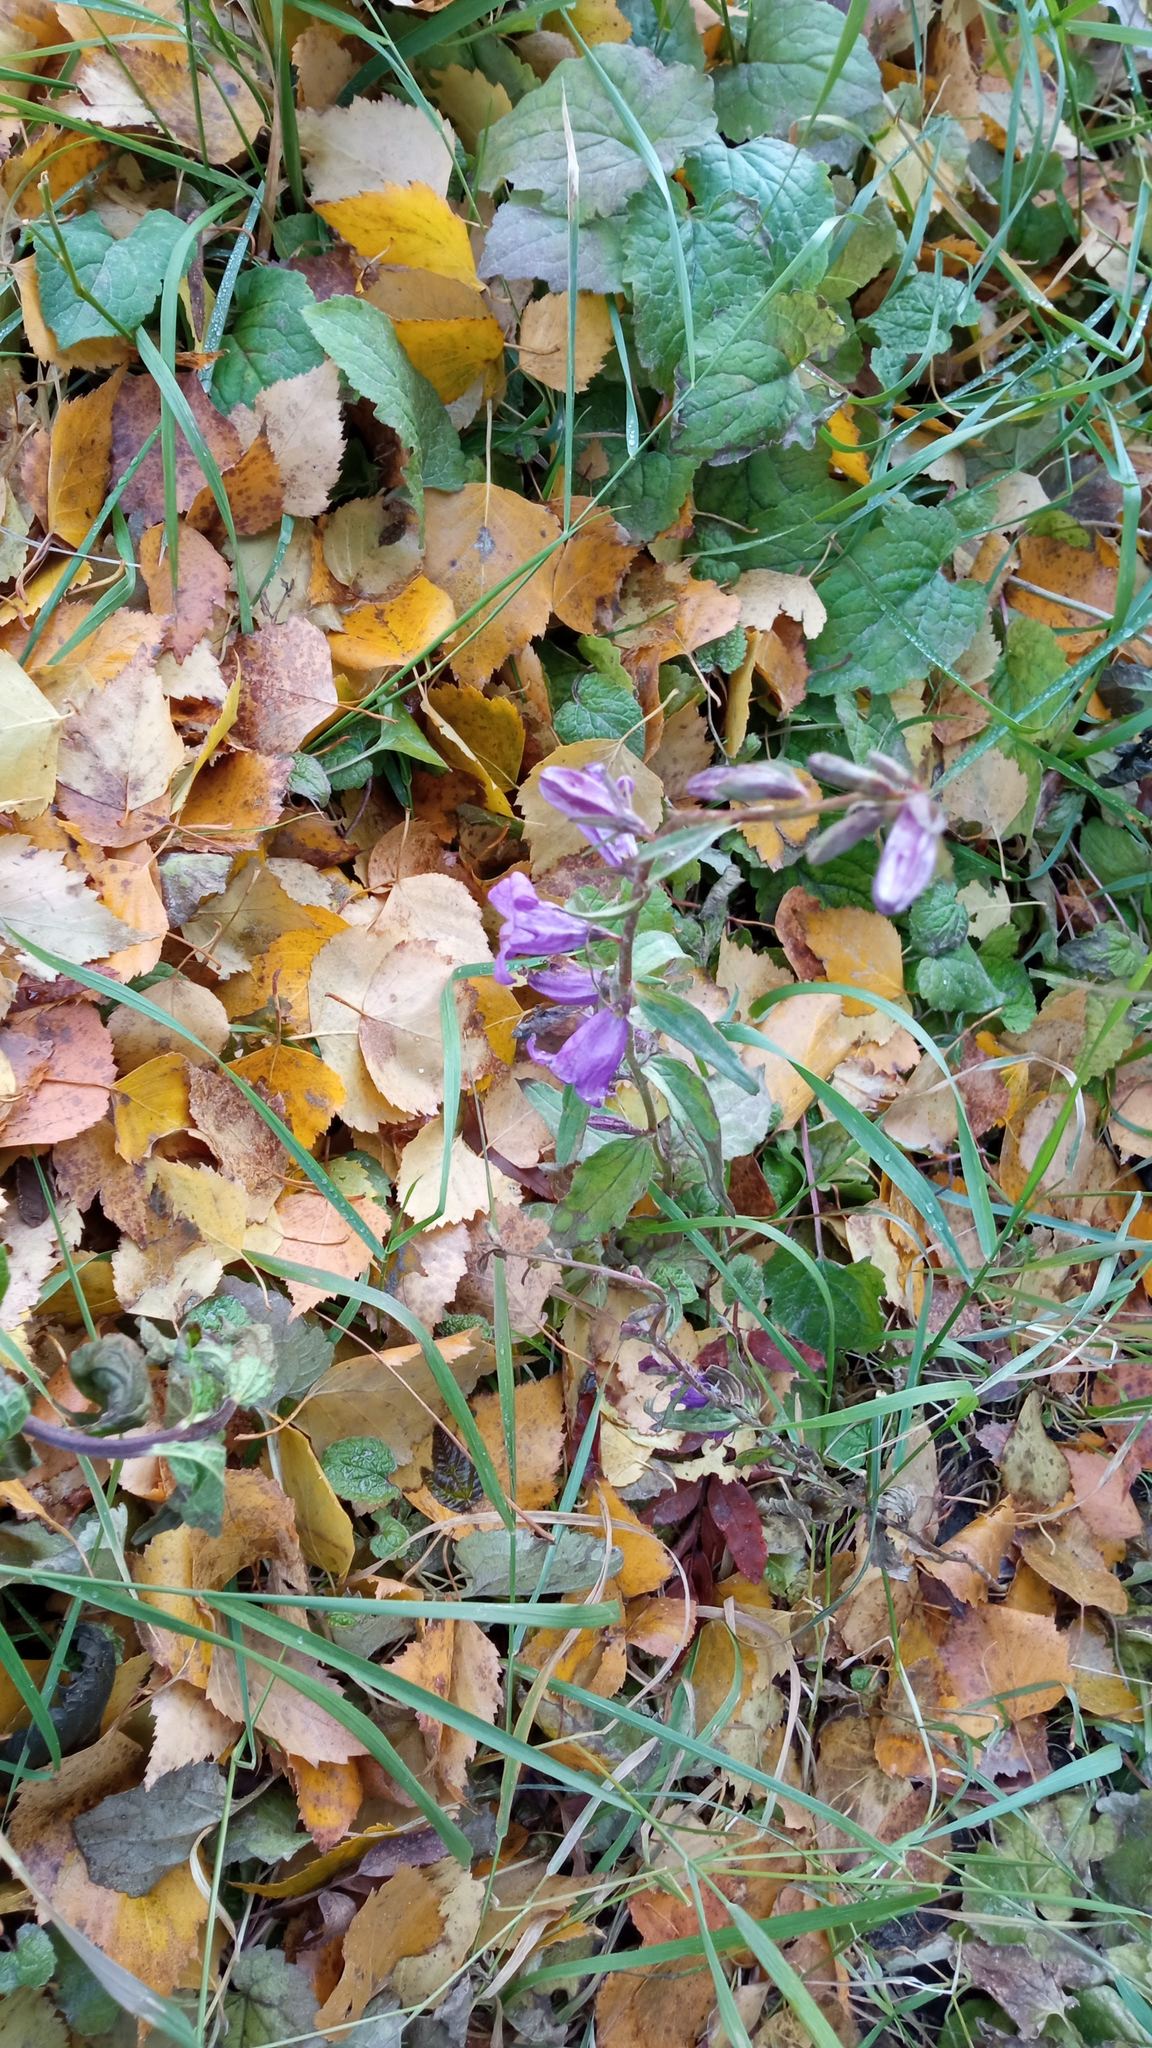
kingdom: Plantae
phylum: Tracheophyta
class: Magnoliopsida
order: Asterales
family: Campanulaceae
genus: Campanula
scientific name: Campanula rapunculoides
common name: Creeping bellflower
